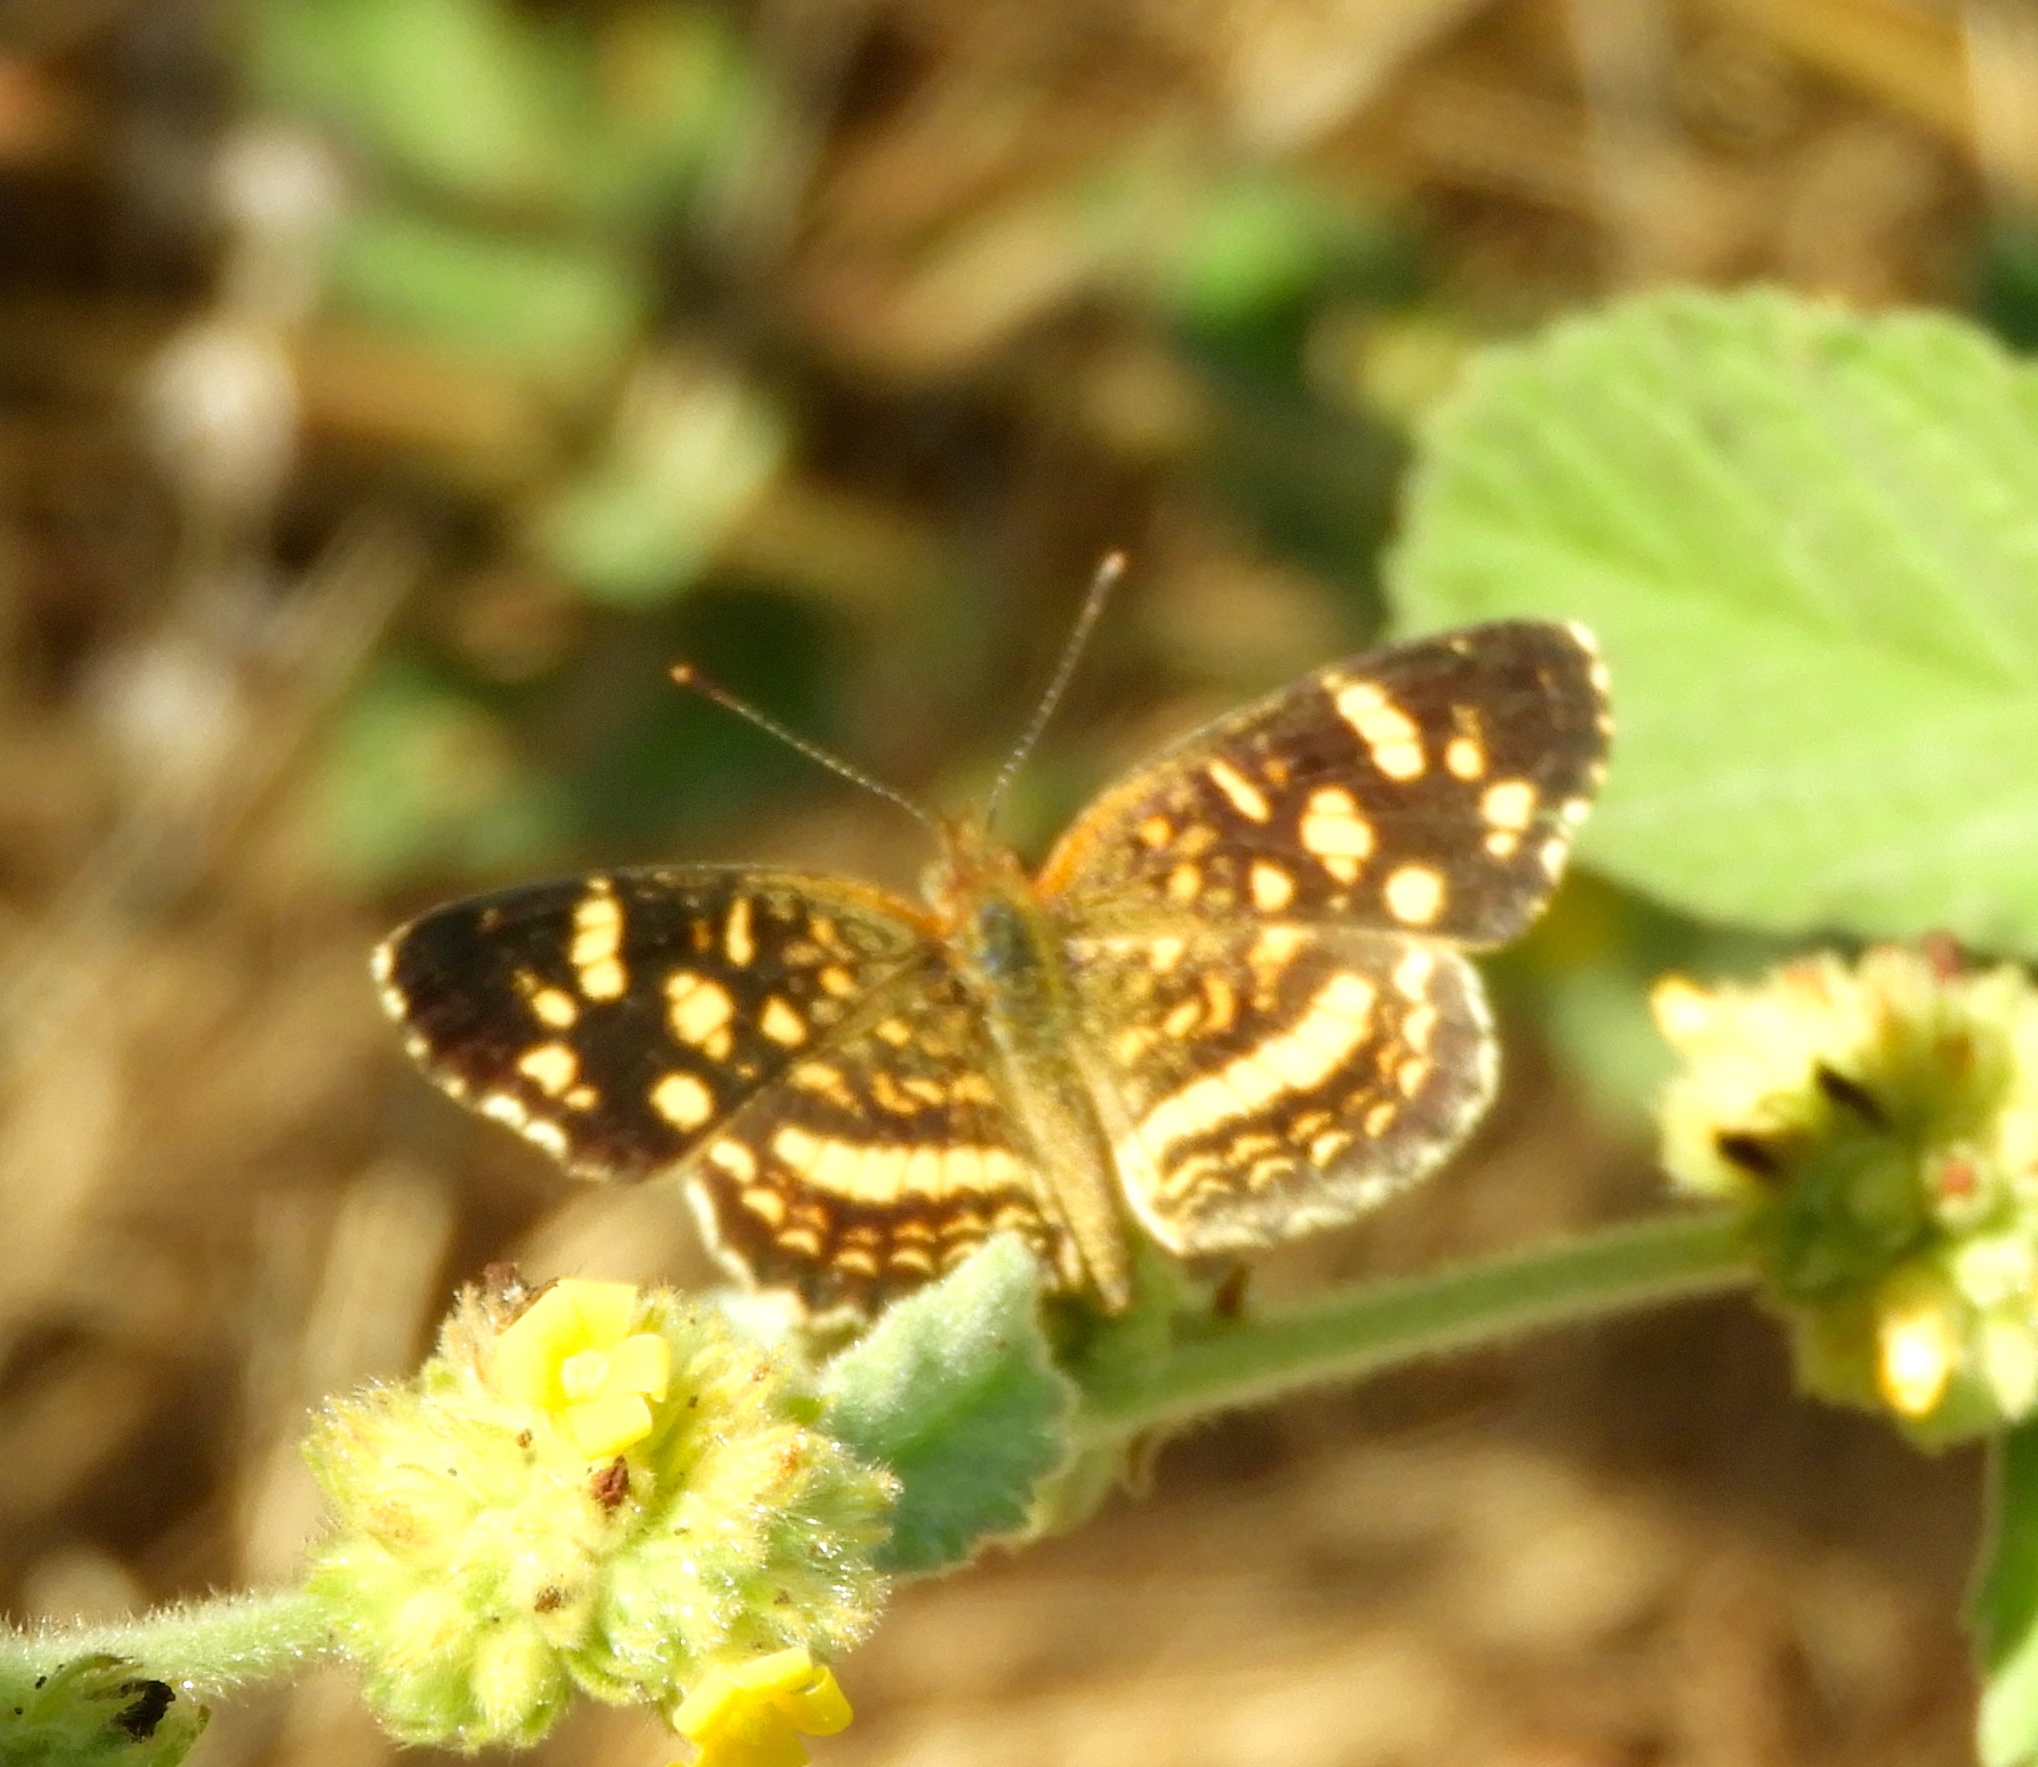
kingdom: Animalia
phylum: Arthropoda
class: Insecta
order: Lepidoptera
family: Nymphalidae
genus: Anthanassa
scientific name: Anthanassa tulcis
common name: Pale-banded crescent
